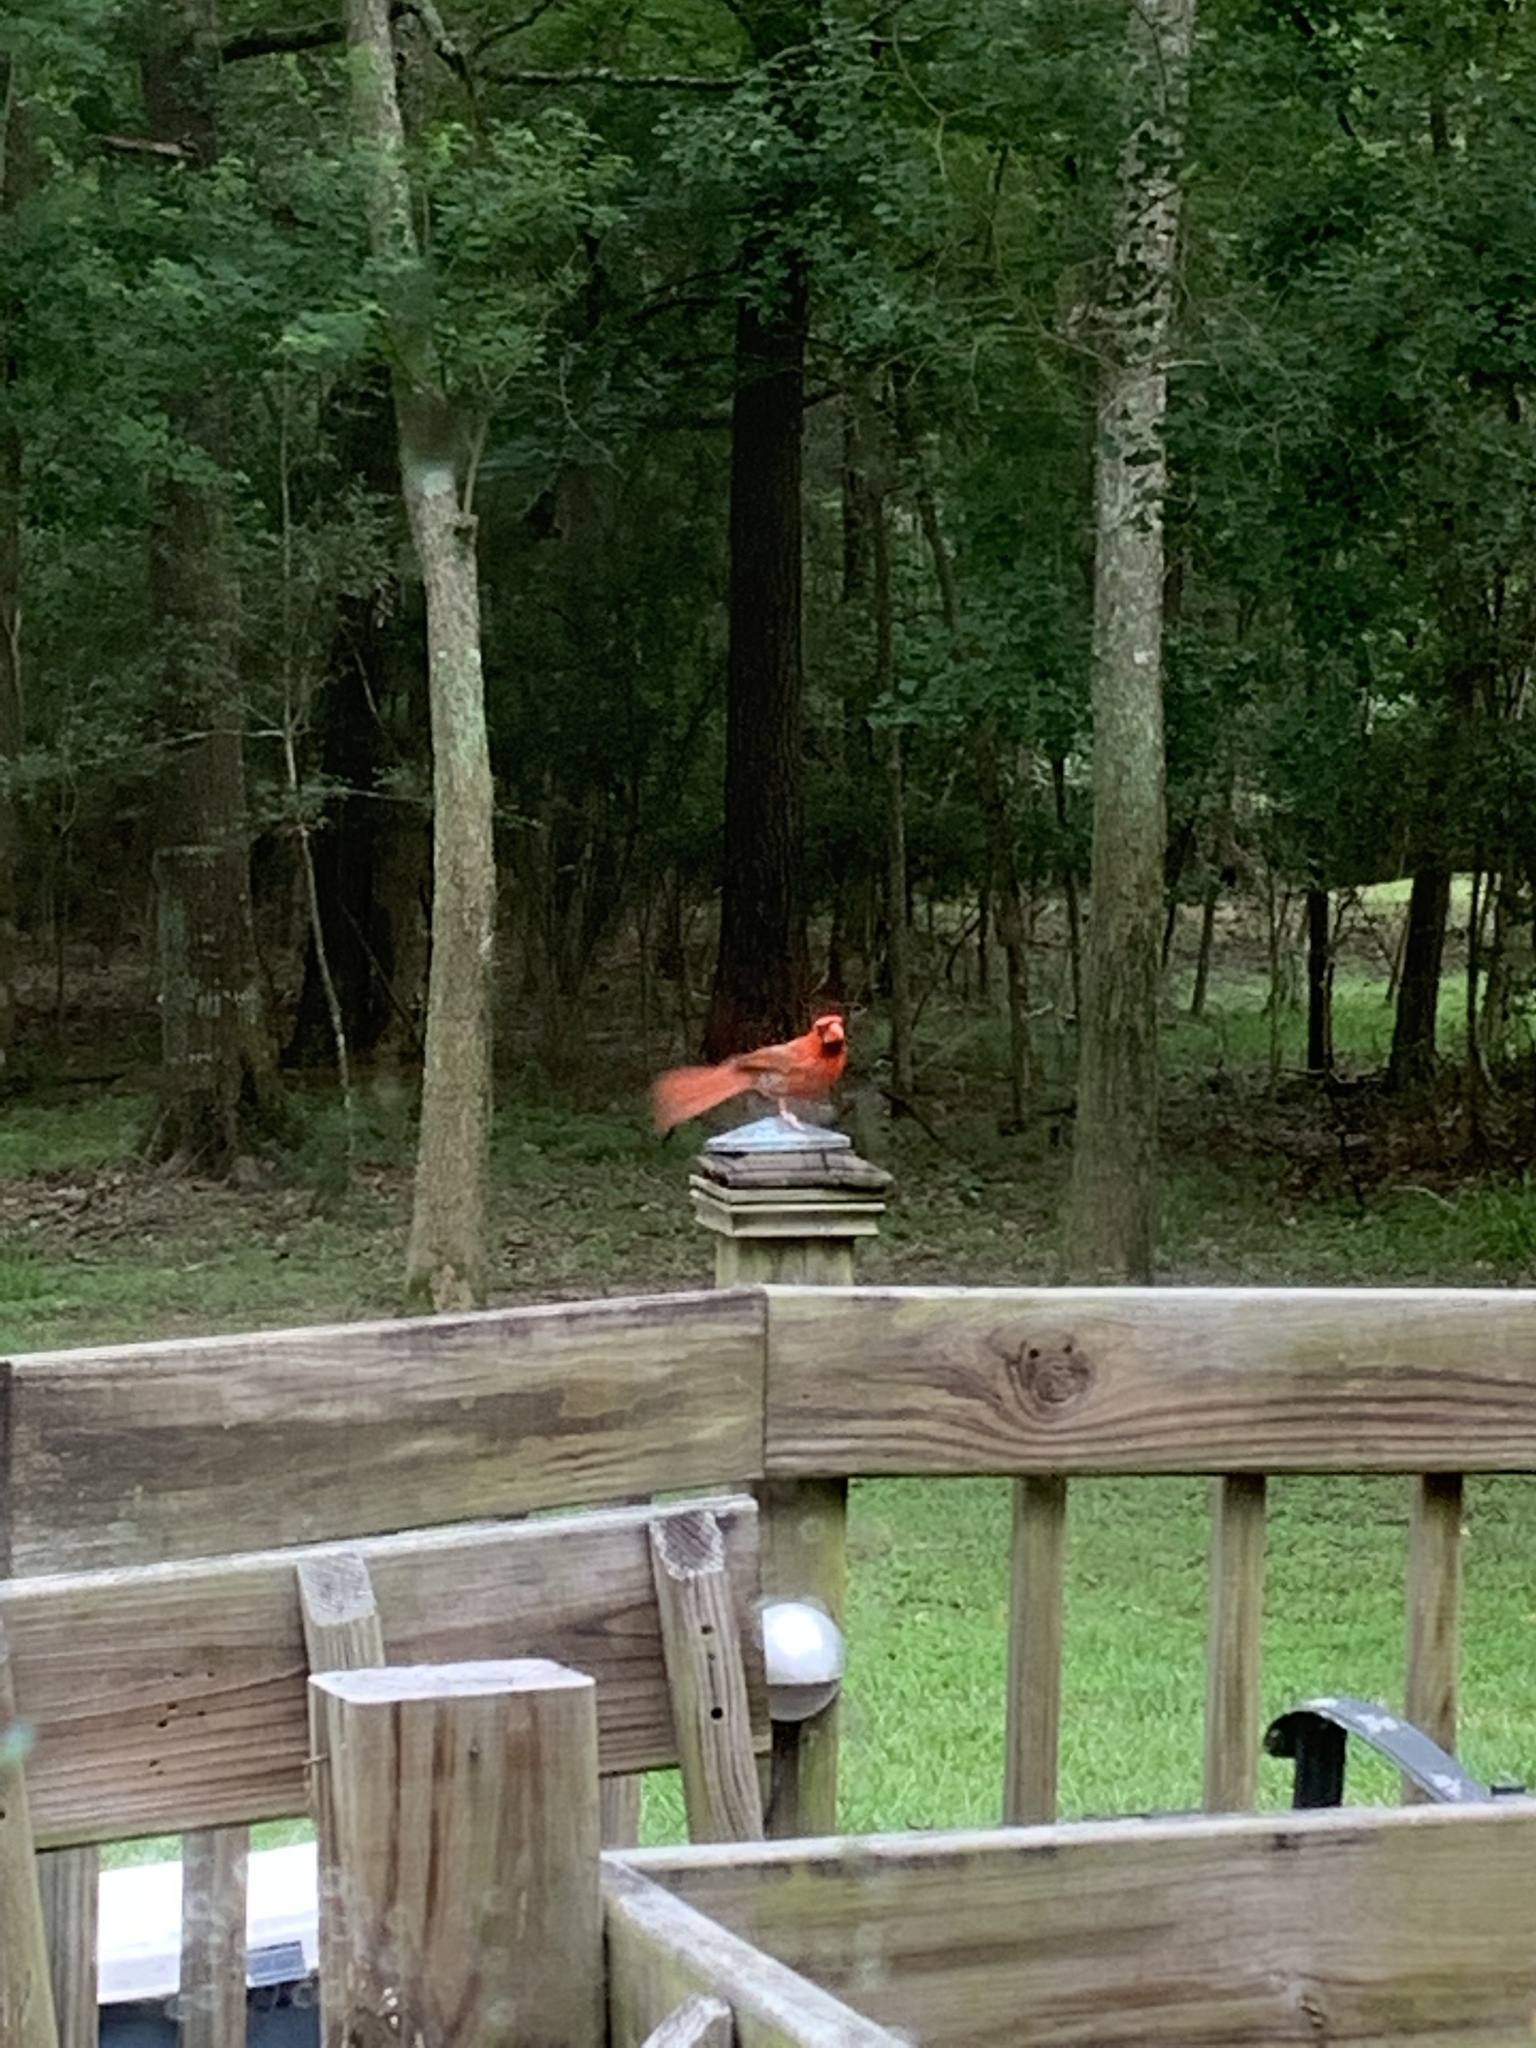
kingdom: Animalia
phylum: Chordata
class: Aves
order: Passeriformes
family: Cardinalidae
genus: Cardinalis
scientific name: Cardinalis cardinalis
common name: Northern cardinal
